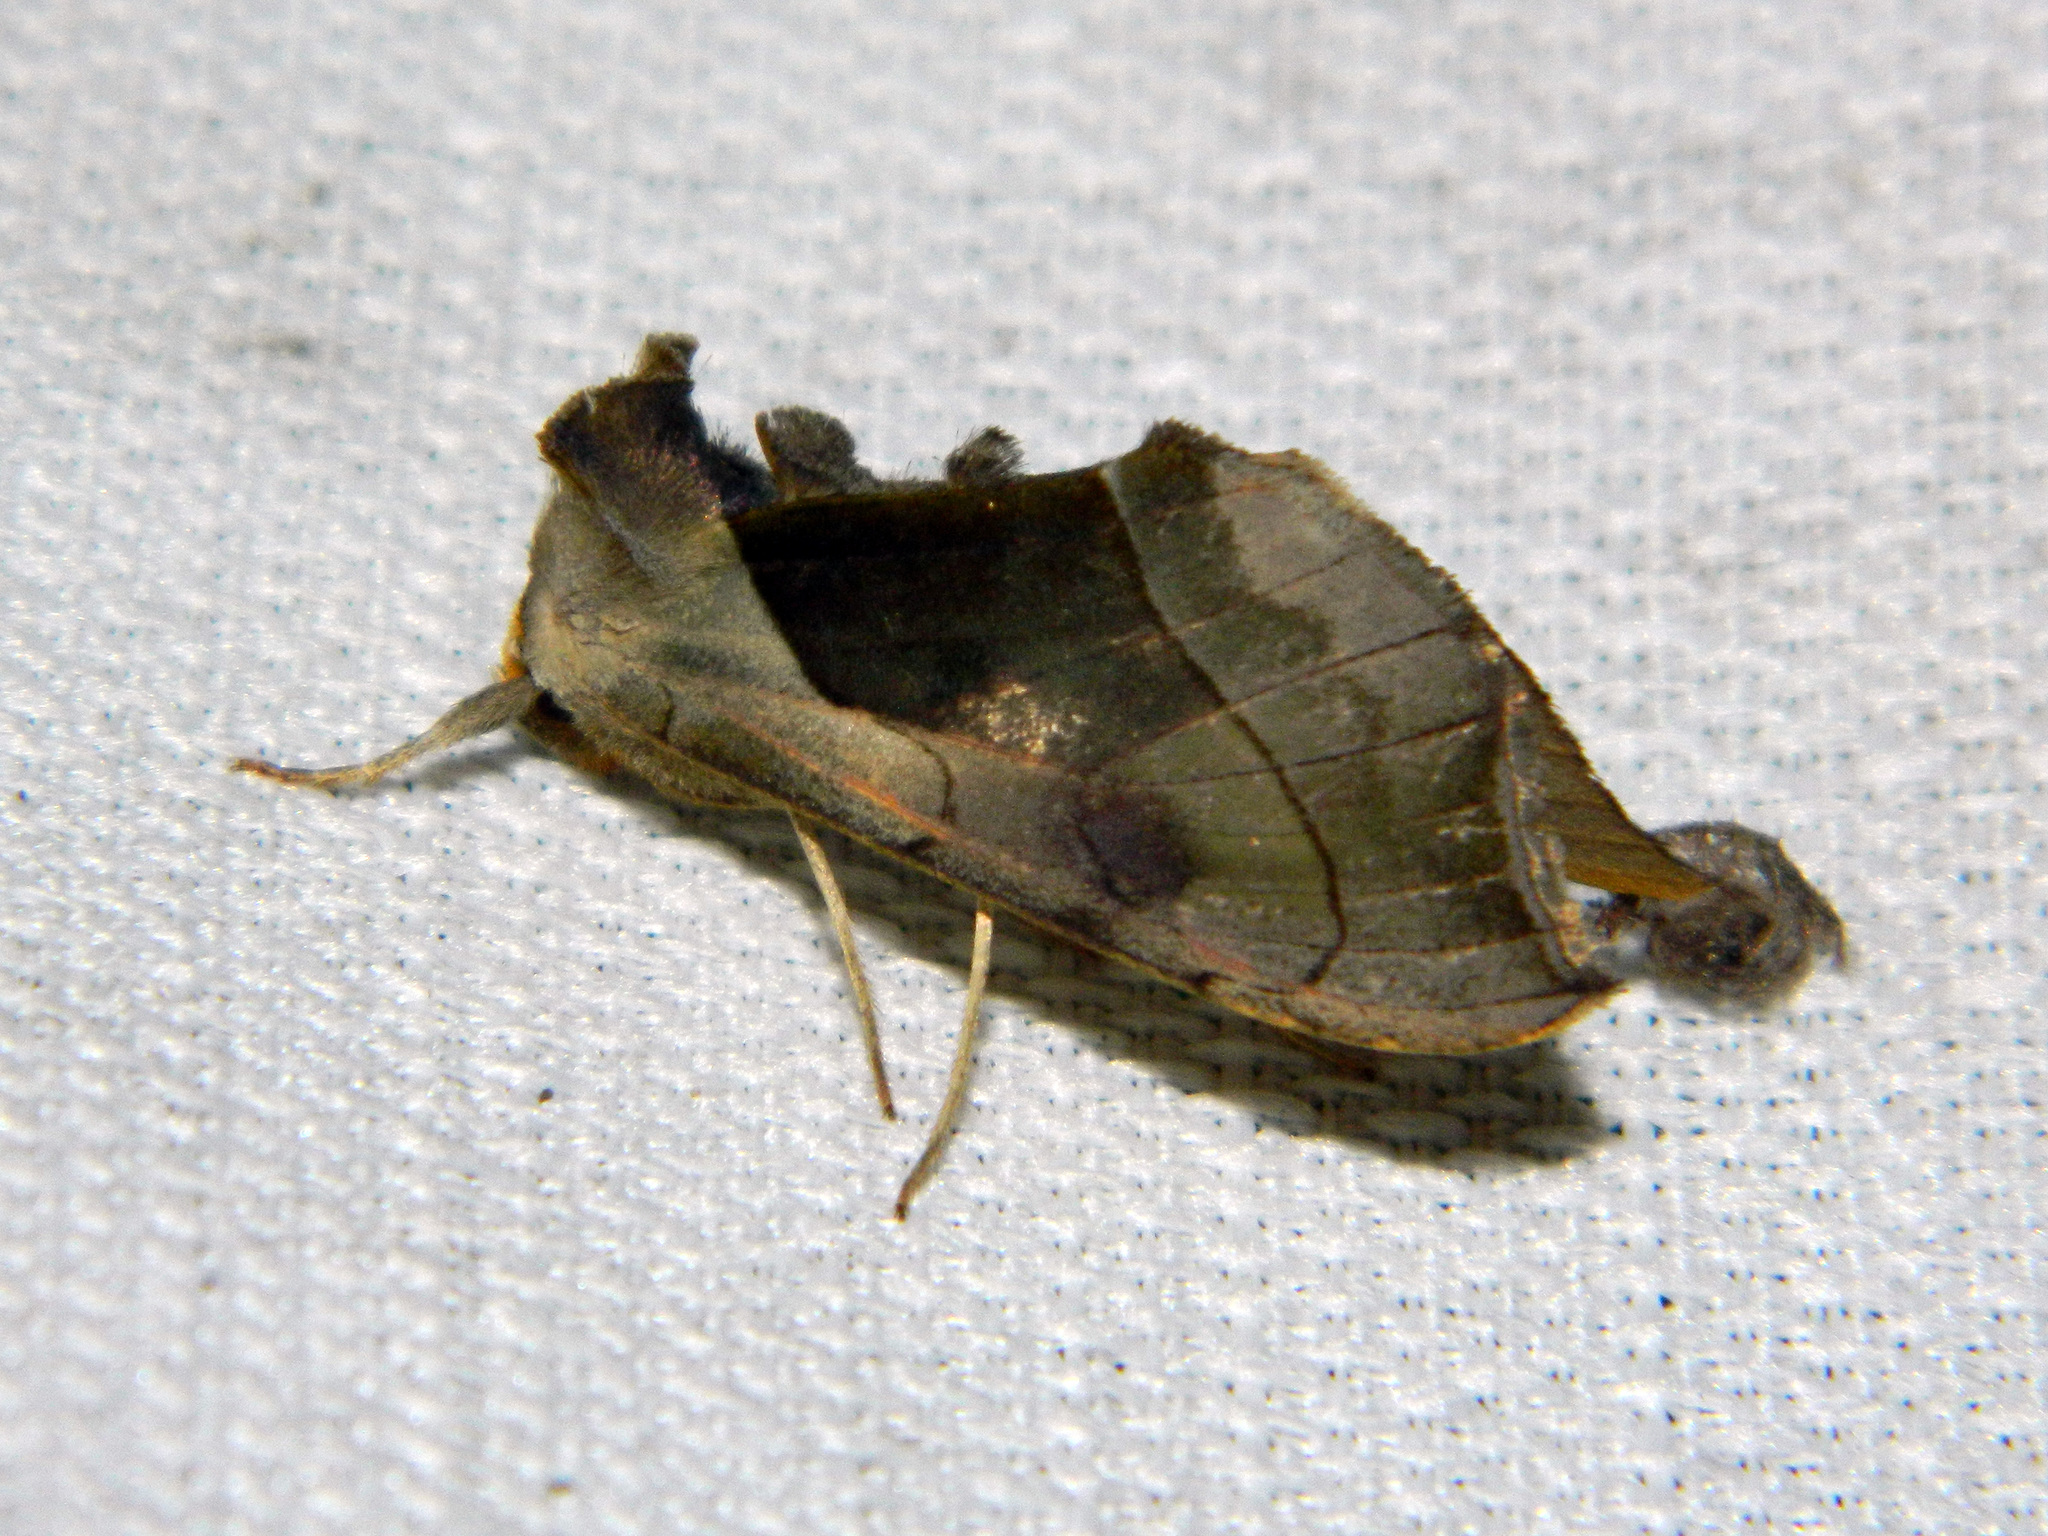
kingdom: Animalia
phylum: Arthropoda
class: Insecta
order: Lepidoptera
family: Noctuidae
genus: Diachrysia
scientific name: Diachrysia balluca
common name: Green-patched looper moth
